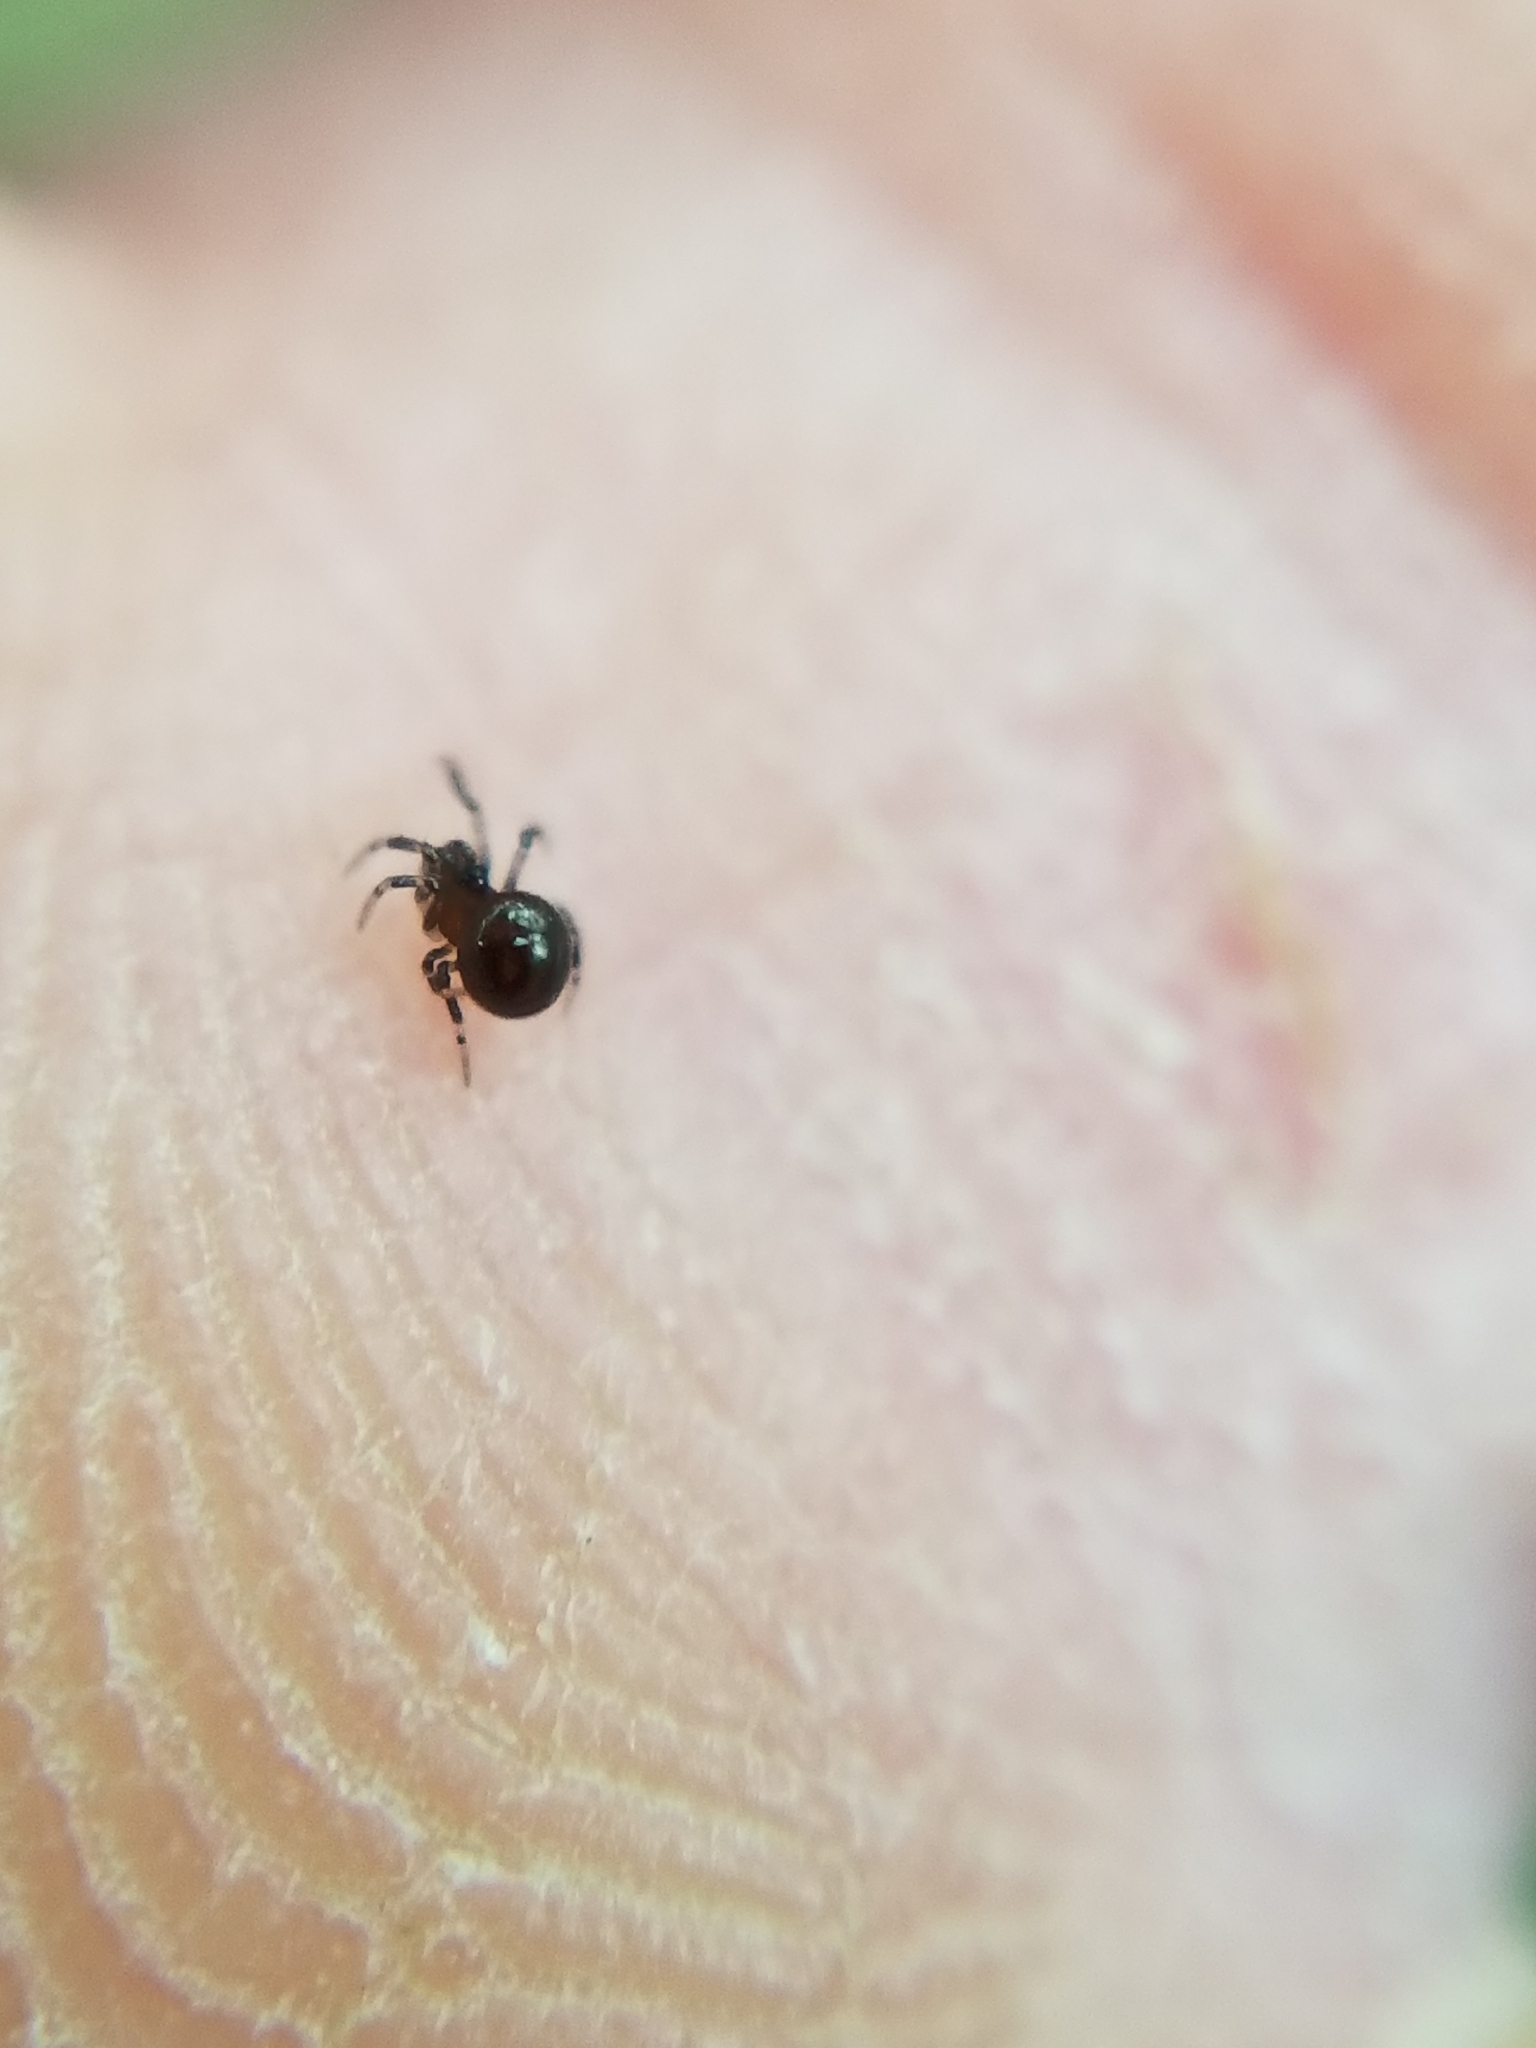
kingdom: Animalia
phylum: Arthropoda
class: Arachnida
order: Araneae
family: Anapidae
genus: Gertschanapis
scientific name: Gertschanapis shantzi
